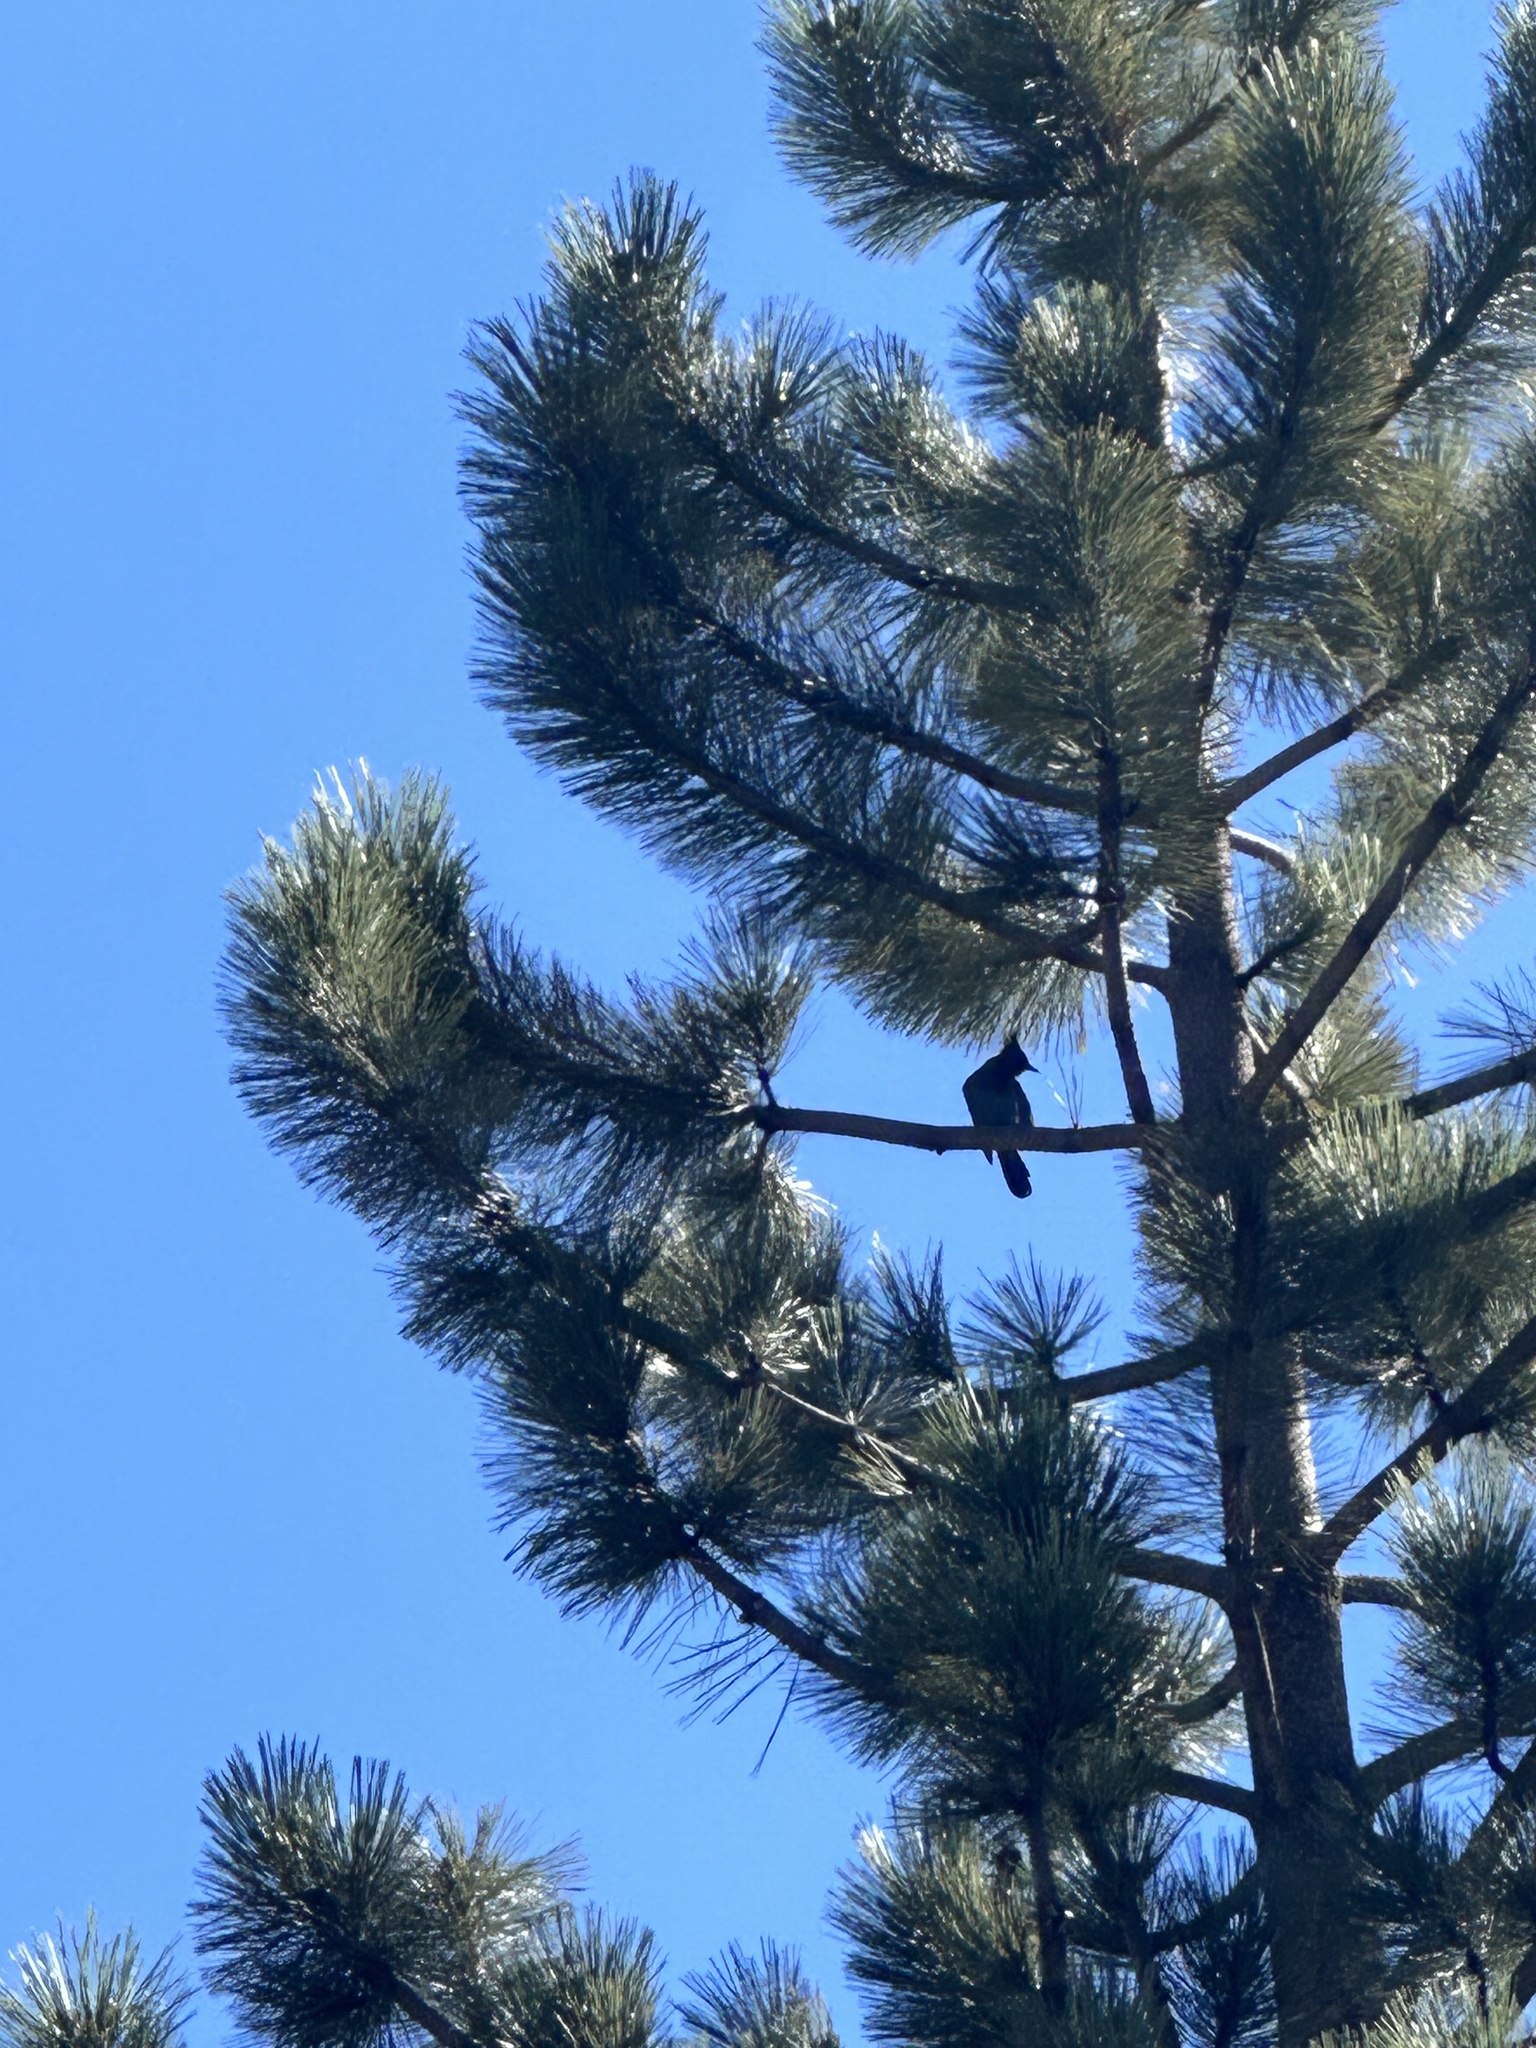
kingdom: Animalia
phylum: Chordata
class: Aves
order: Passeriformes
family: Corvidae
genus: Cyanocitta
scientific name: Cyanocitta stelleri
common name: Steller's jay
